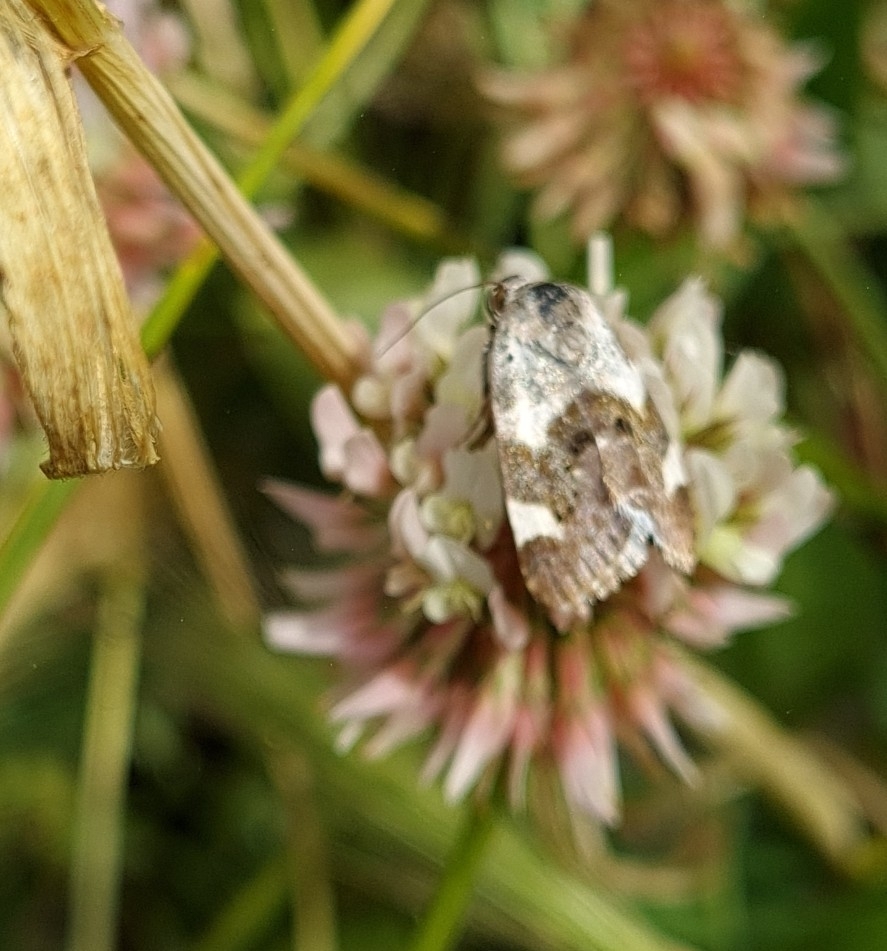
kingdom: Animalia
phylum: Arthropoda
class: Insecta
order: Lepidoptera
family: Noctuidae
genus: Acontia
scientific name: Acontia lucida
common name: Pale shoulder
